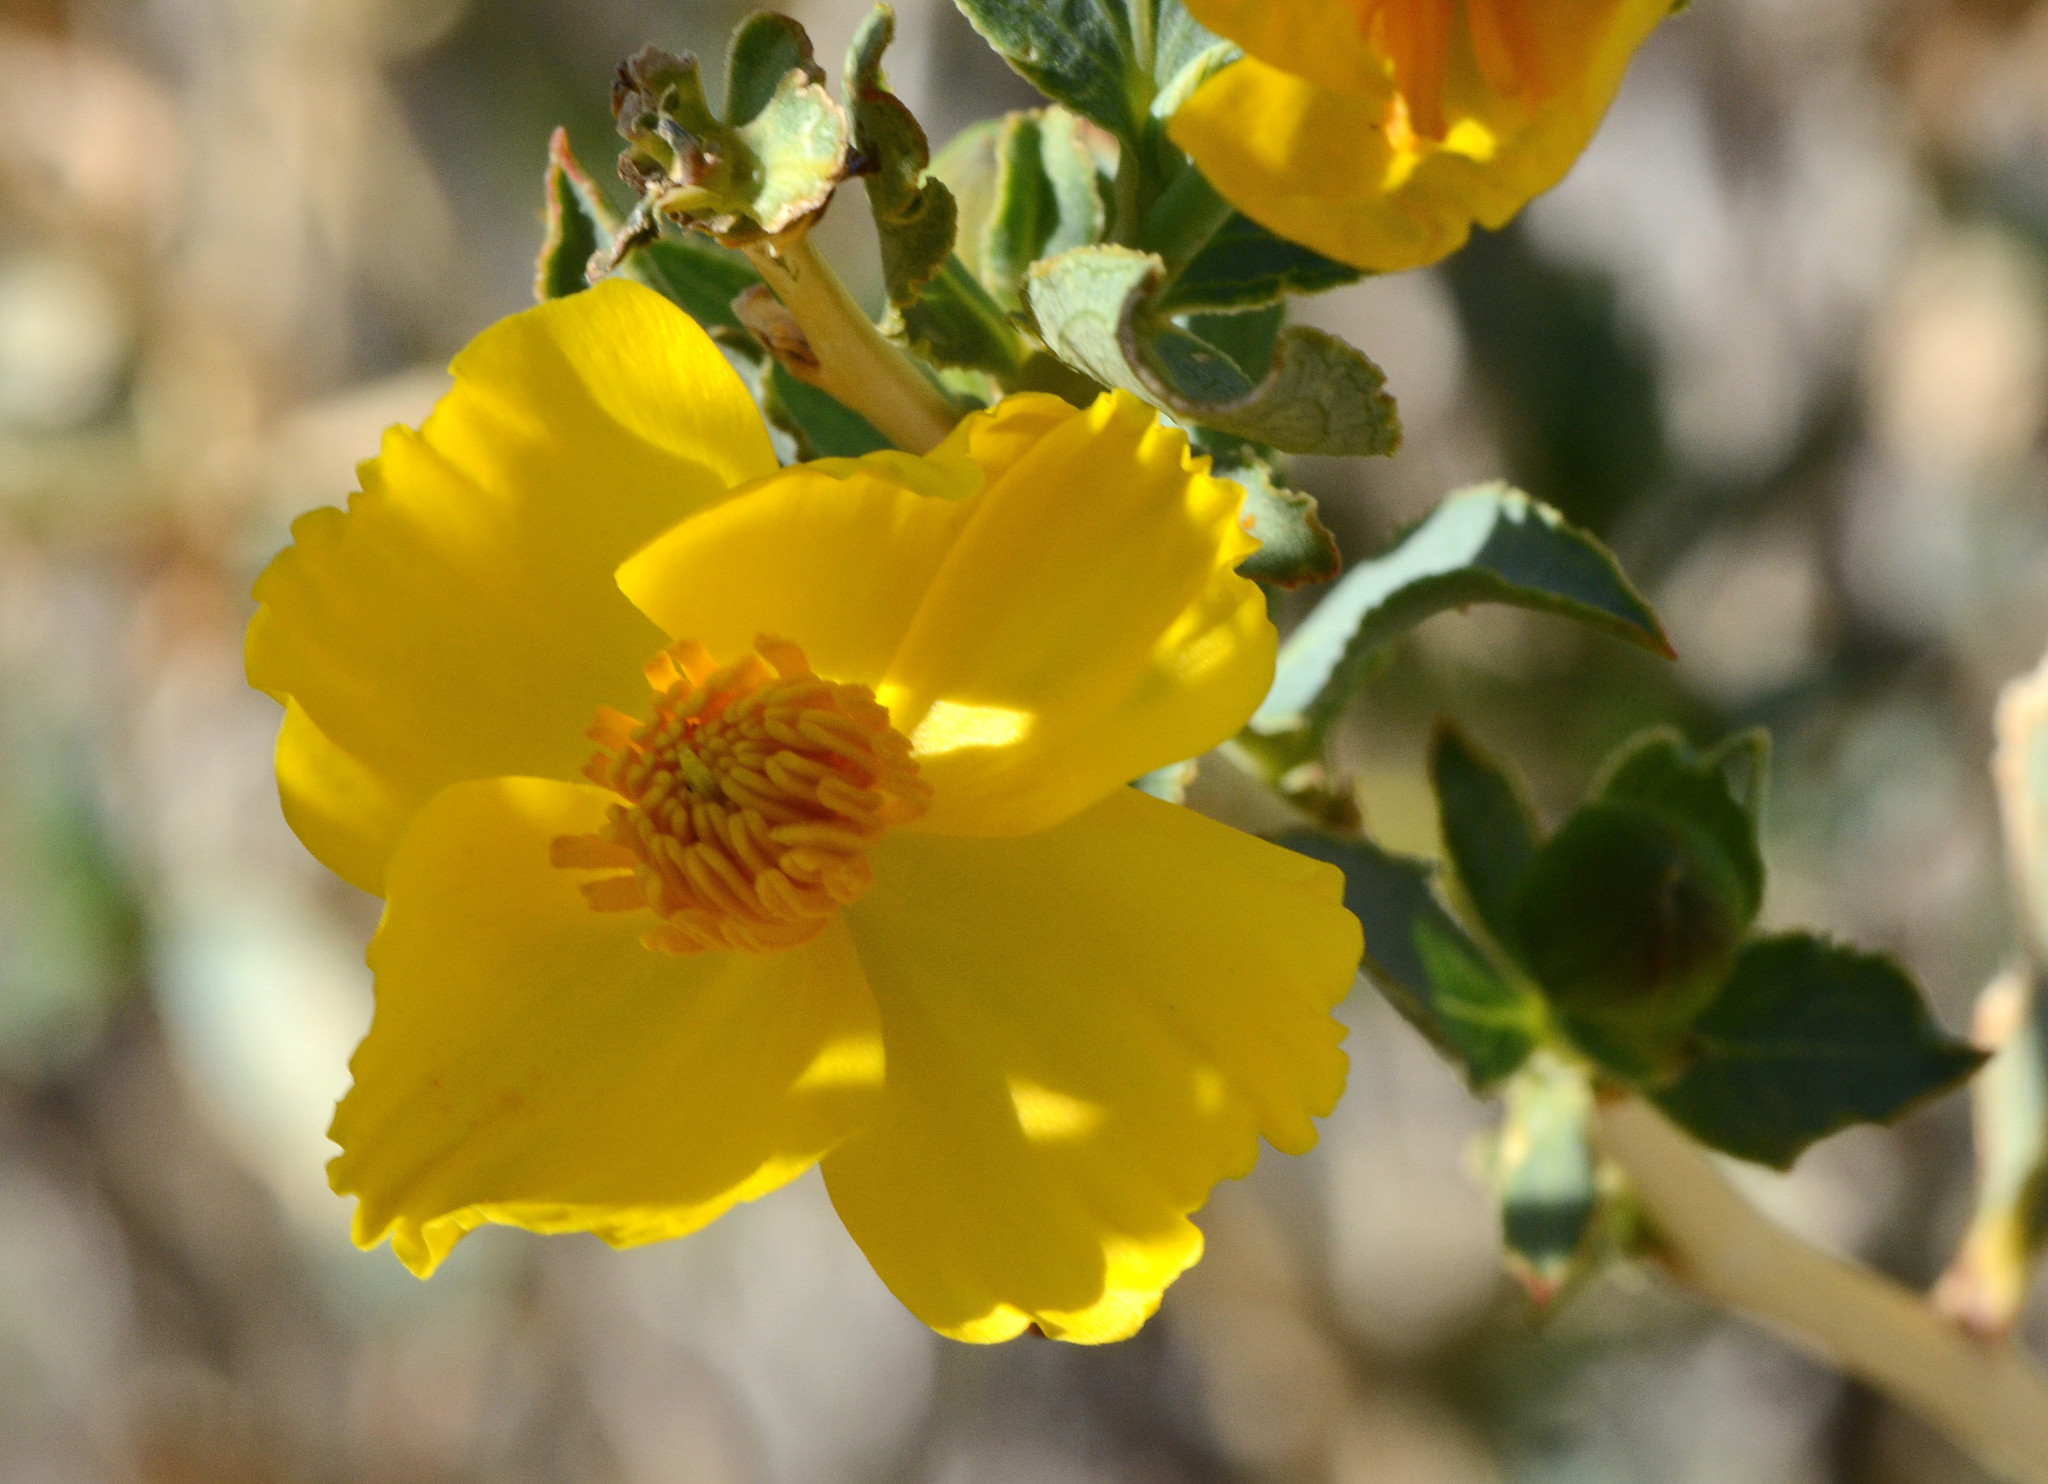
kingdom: Plantae
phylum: Tracheophyta
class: Magnoliopsida
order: Ranunculales
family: Papaveraceae
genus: Dendromecon
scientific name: Dendromecon rigida
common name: Tree poppy
